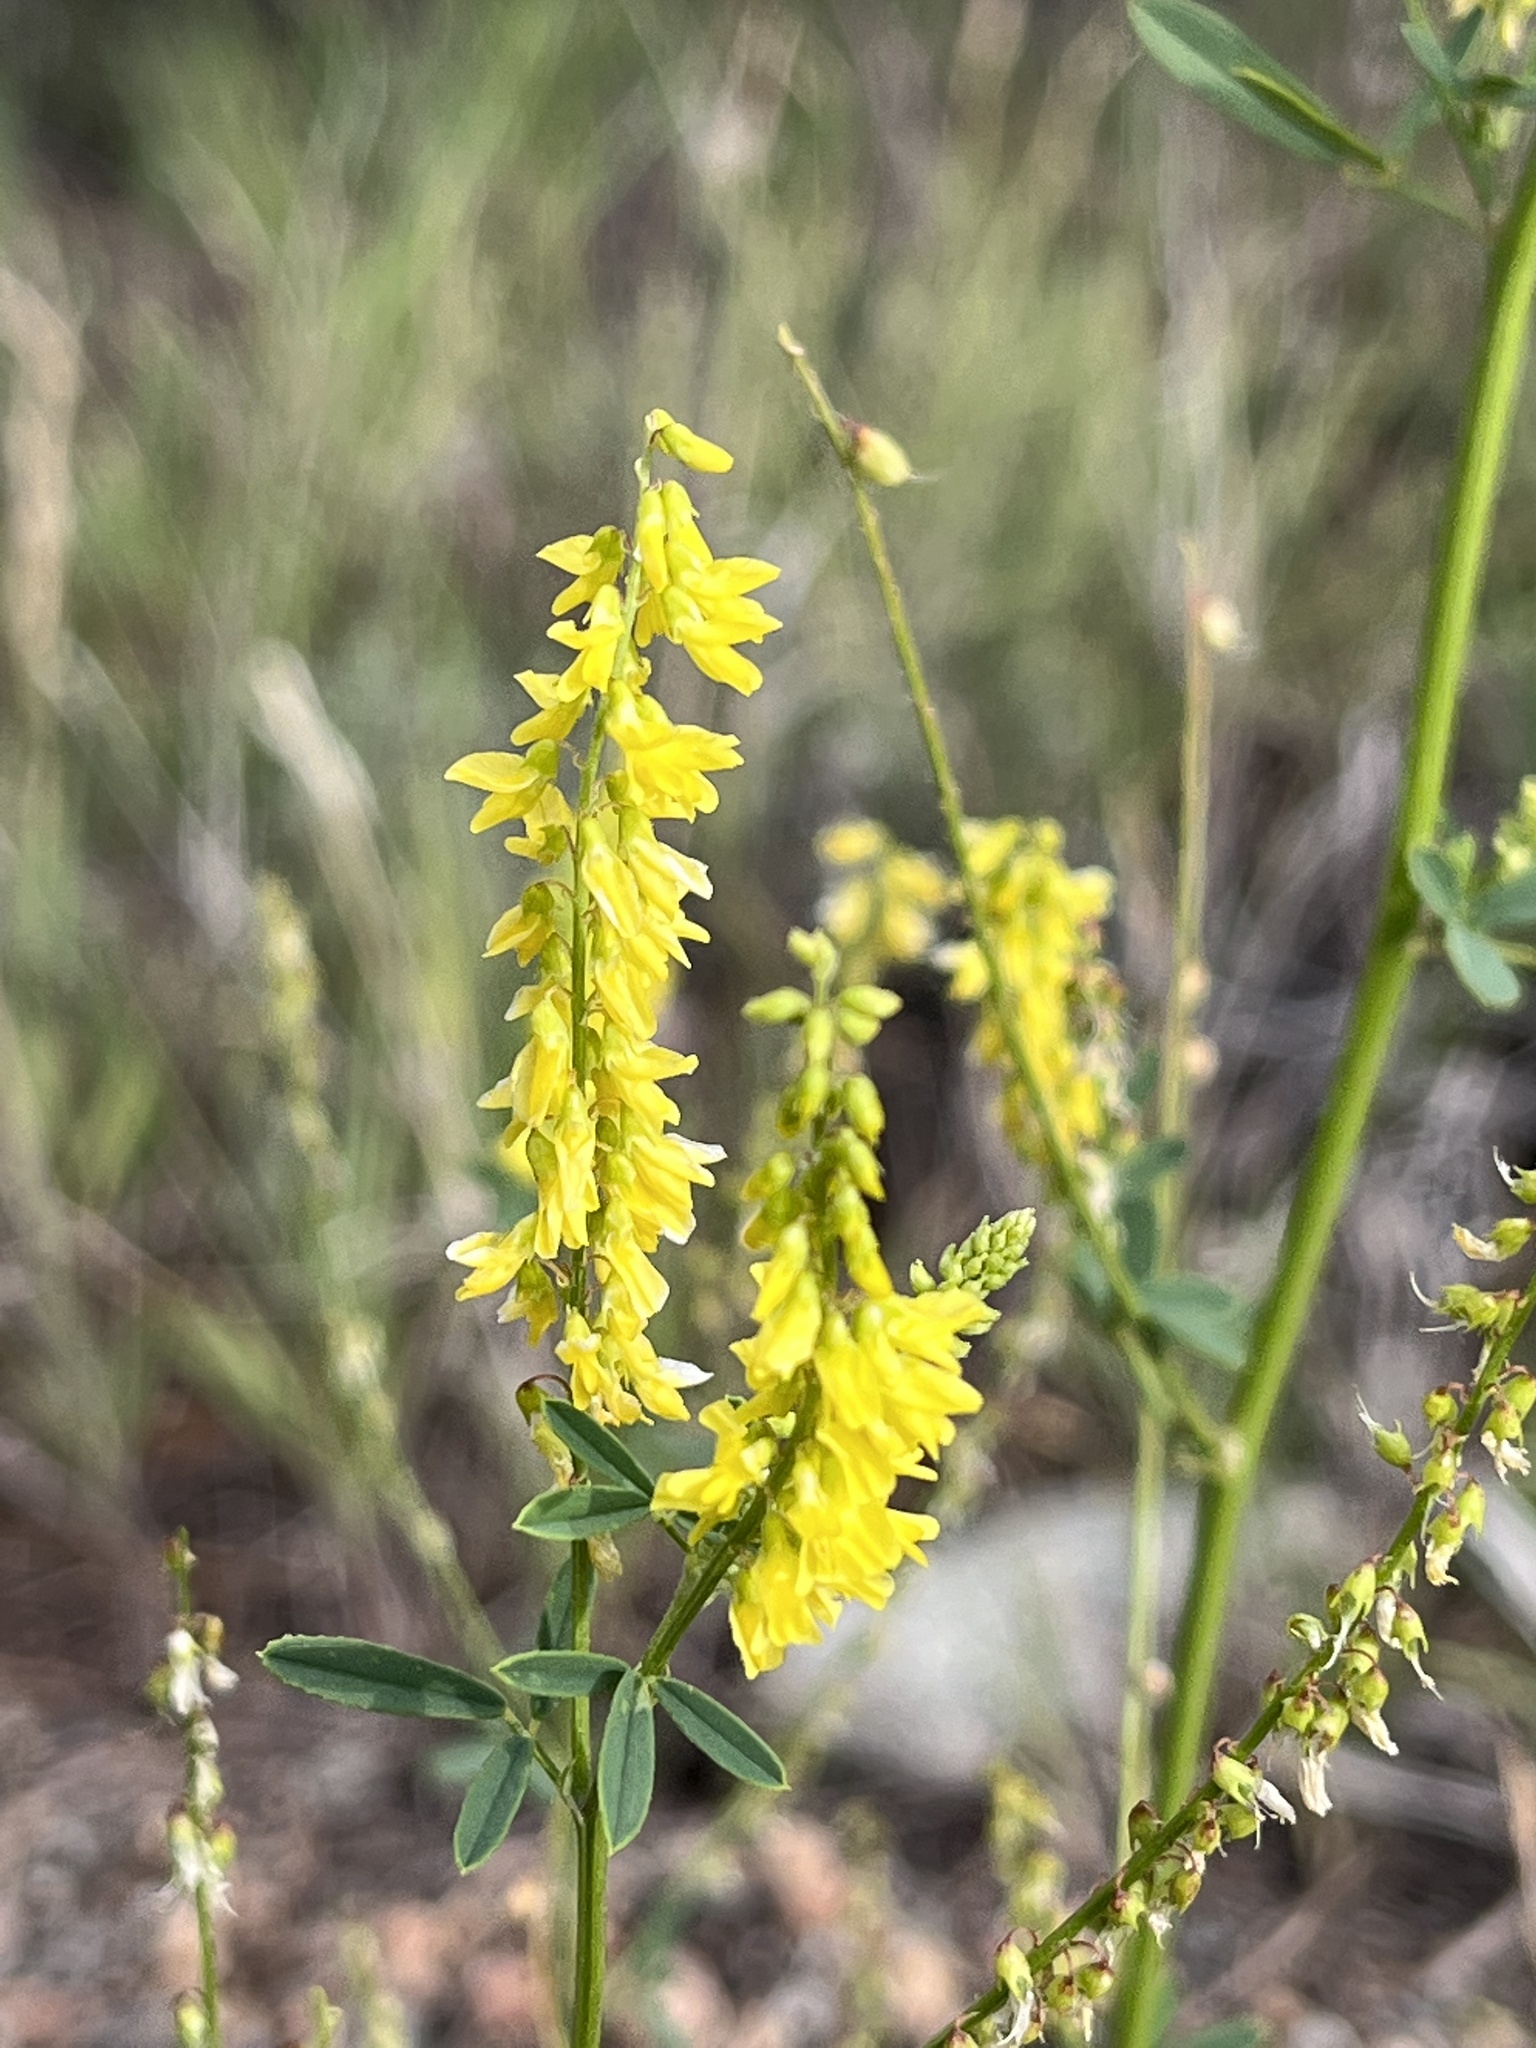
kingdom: Plantae
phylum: Tracheophyta
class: Magnoliopsida
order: Fabales
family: Fabaceae
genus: Melilotus
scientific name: Melilotus officinalis
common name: Sweetclover
